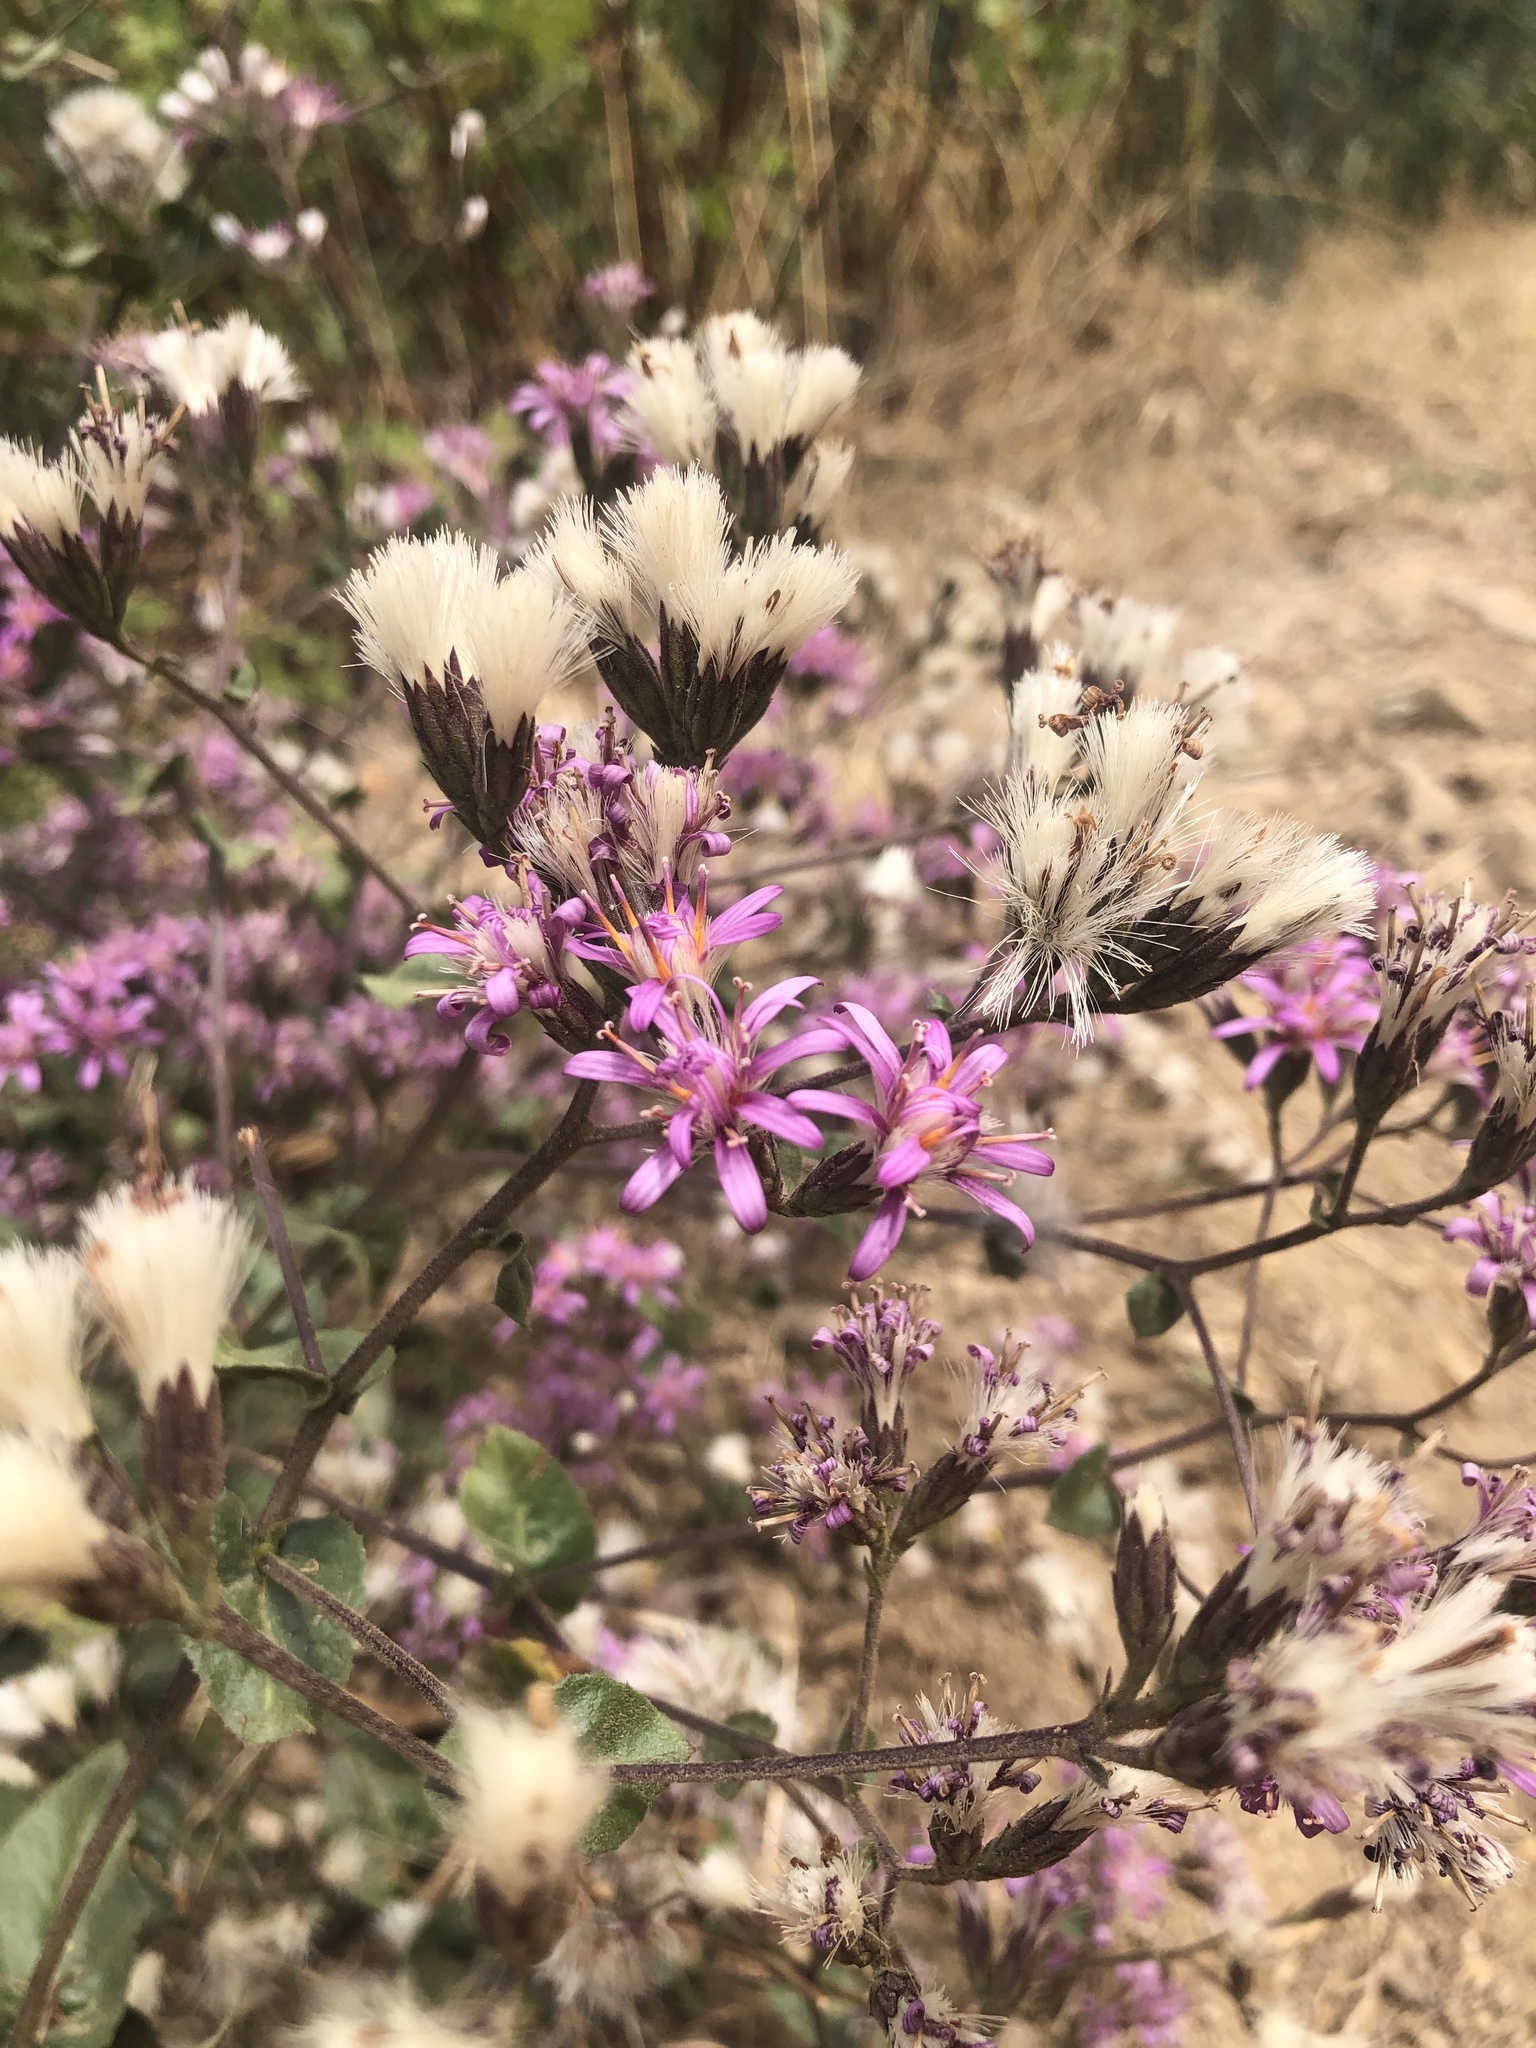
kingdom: Plantae
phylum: Tracheophyta
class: Magnoliopsida
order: Asterales
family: Asteraceae
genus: Acourtia
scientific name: Acourtia microcephala
